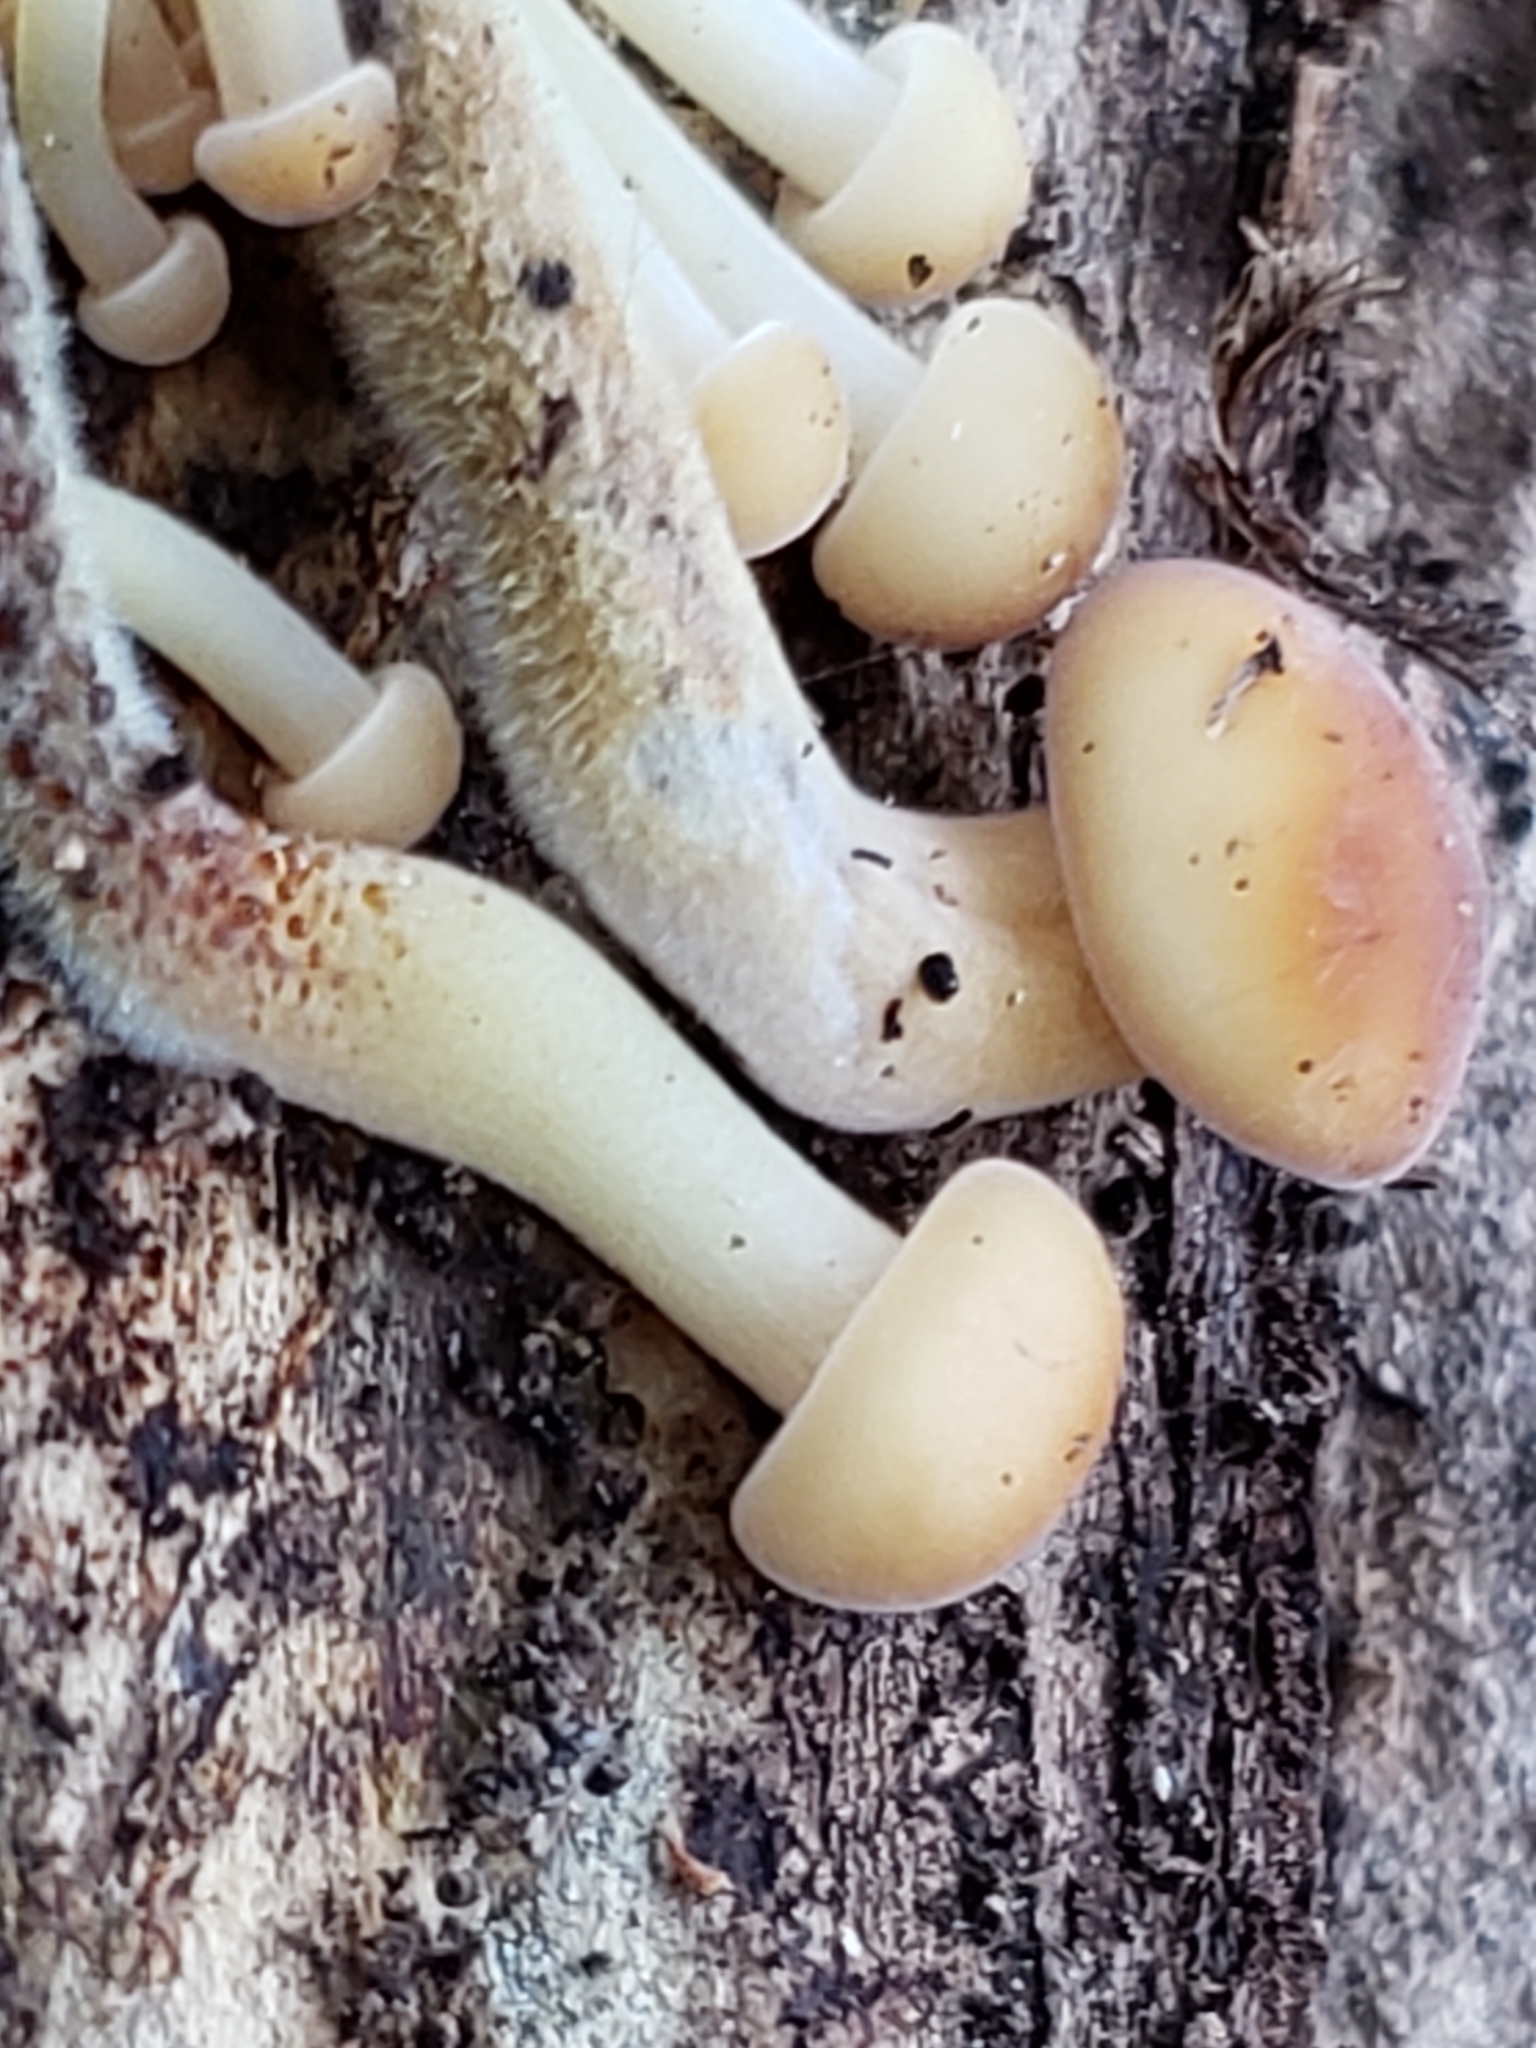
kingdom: Fungi
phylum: Basidiomycota
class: Agaricomycetes
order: Agaricales
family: Strophariaceae
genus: Hypholoma
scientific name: Hypholoma capnoides
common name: Conifer tuft
